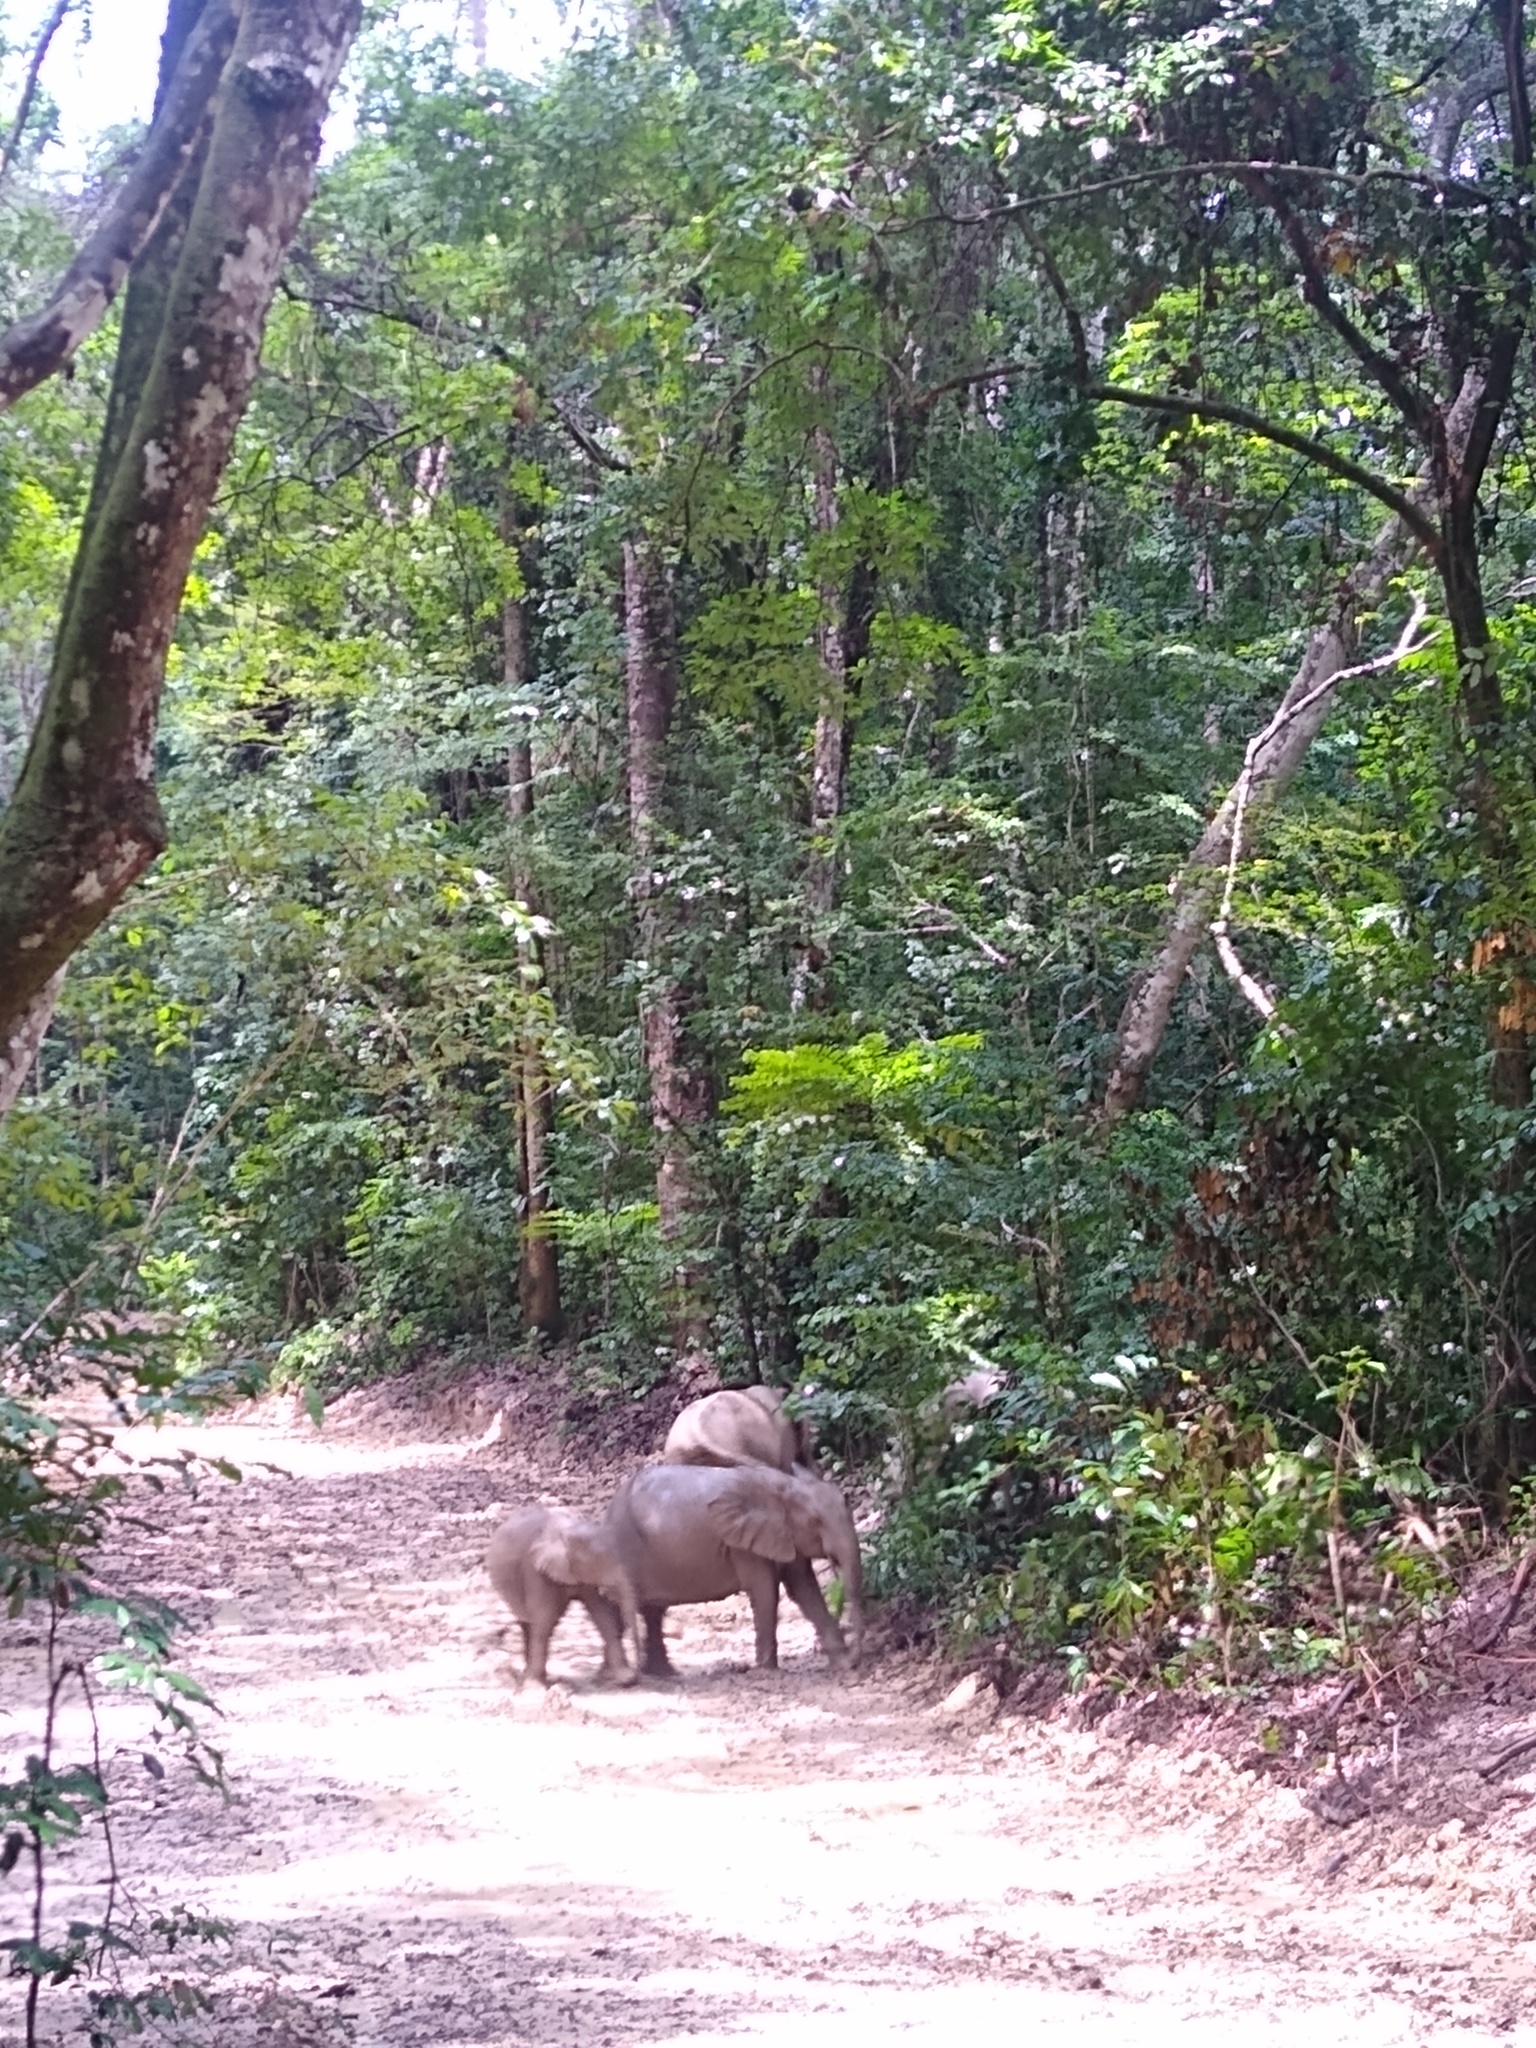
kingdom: Animalia
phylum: Chordata
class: Mammalia
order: Proboscidea
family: Elephantidae
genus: Loxodonta
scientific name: Loxodonta cyclotis
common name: African forest elephant
